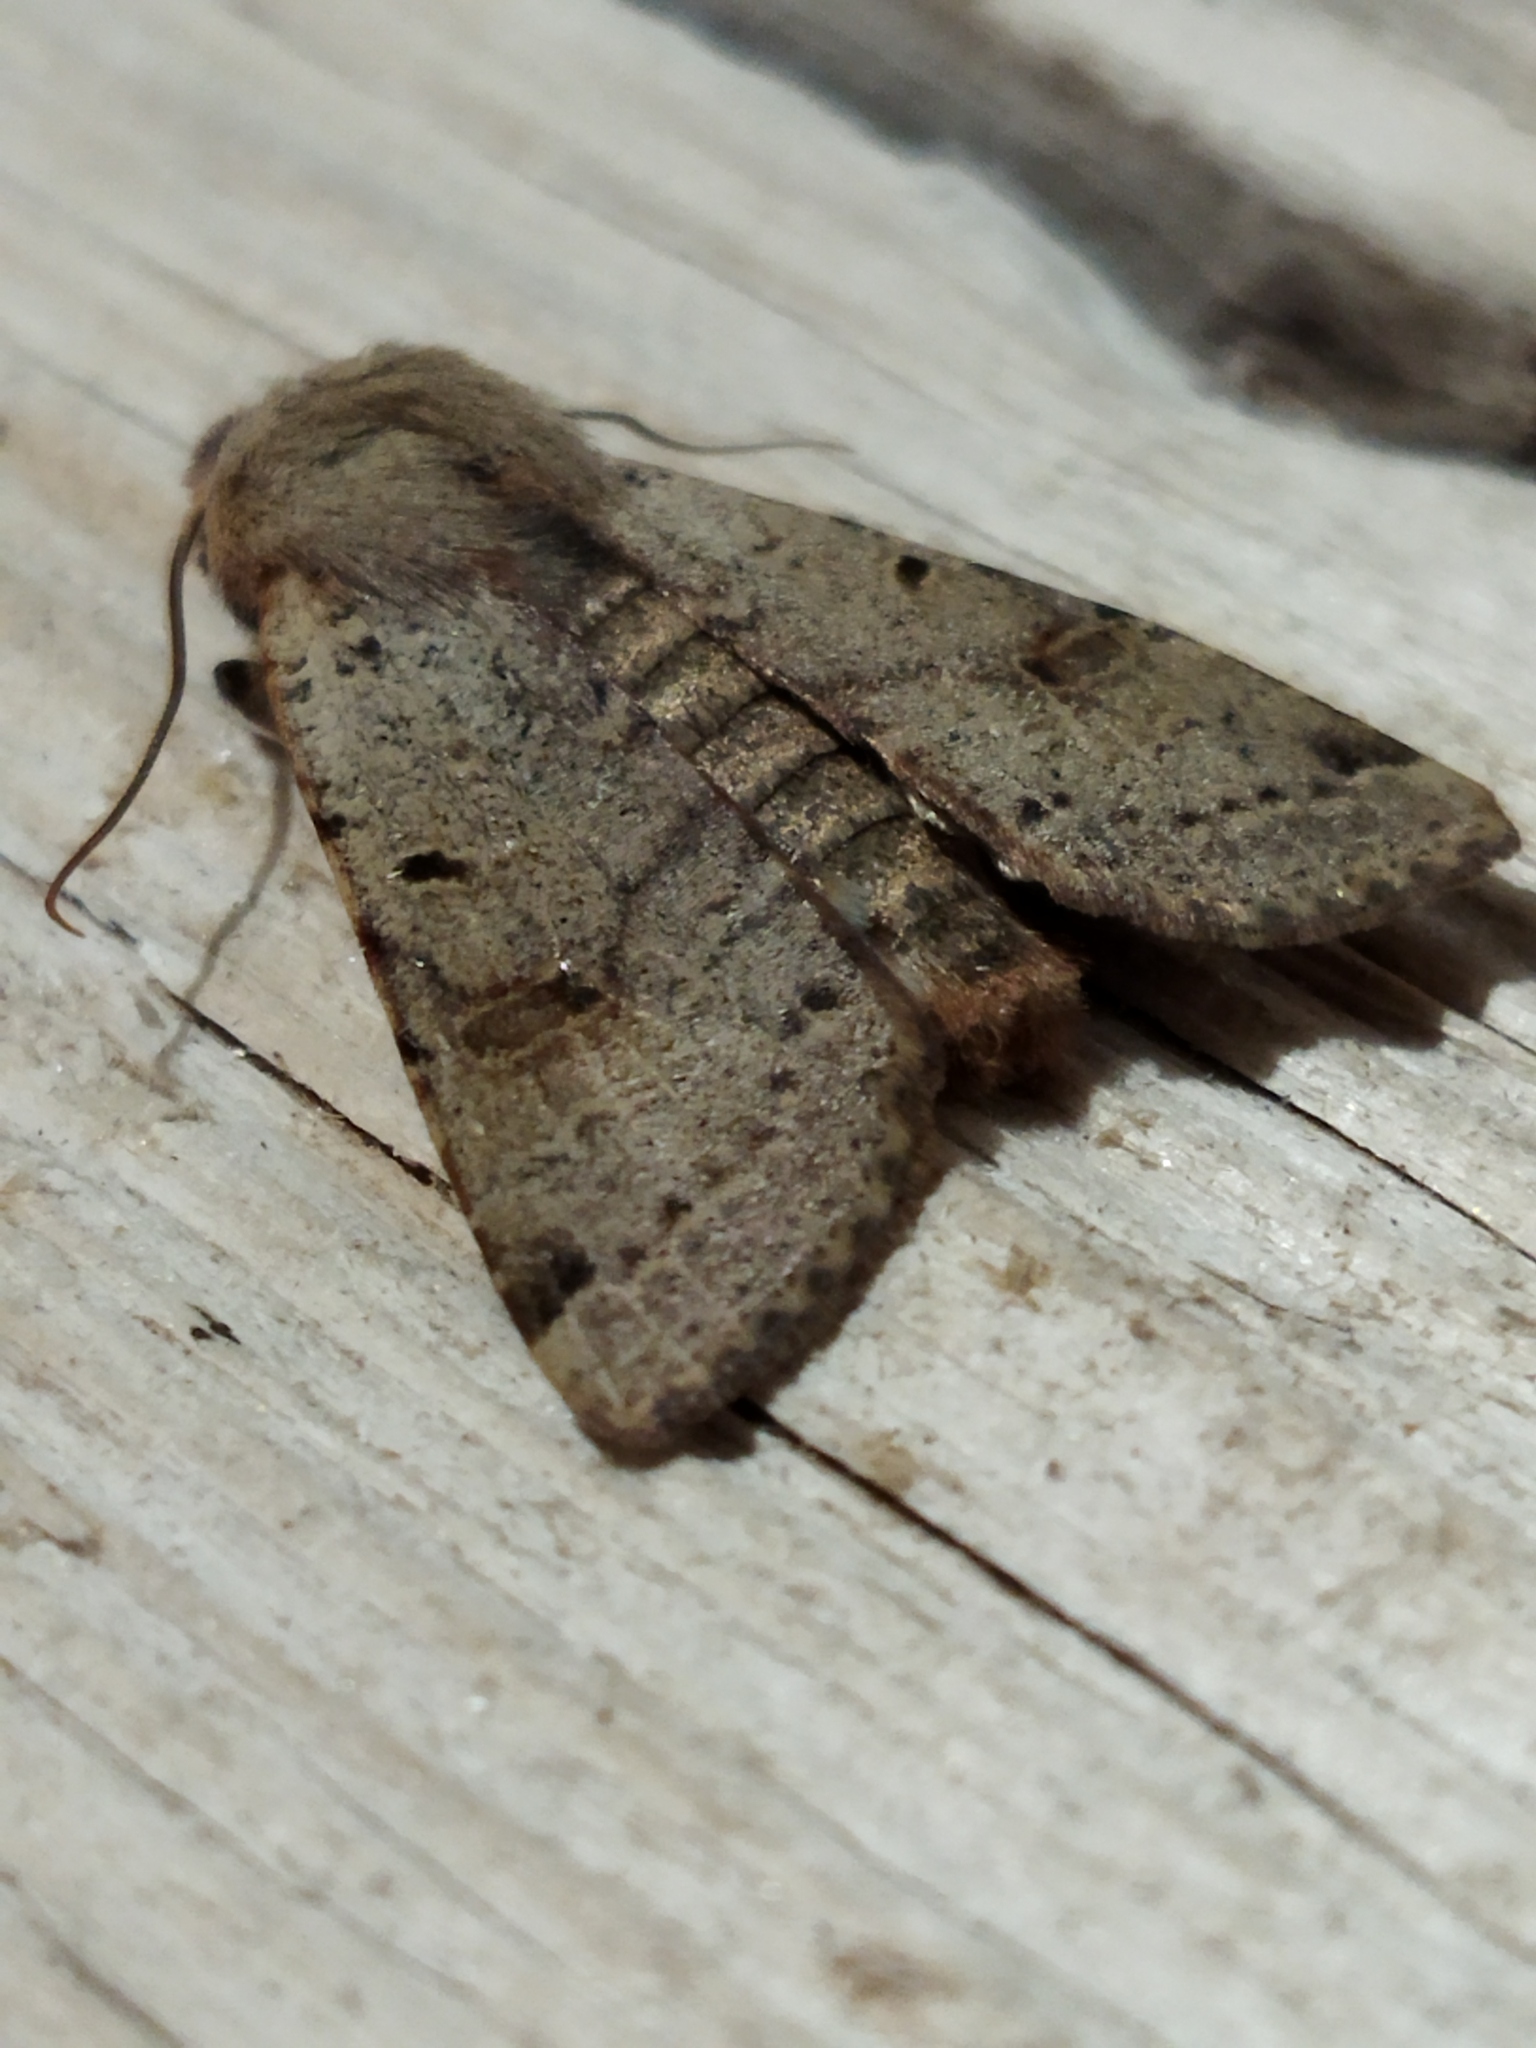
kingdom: Animalia
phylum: Arthropoda
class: Insecta
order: Lepidoptera
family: Noctuidae
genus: Agrochola
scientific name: Agrochola lychnidis
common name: Beaded chestnut
